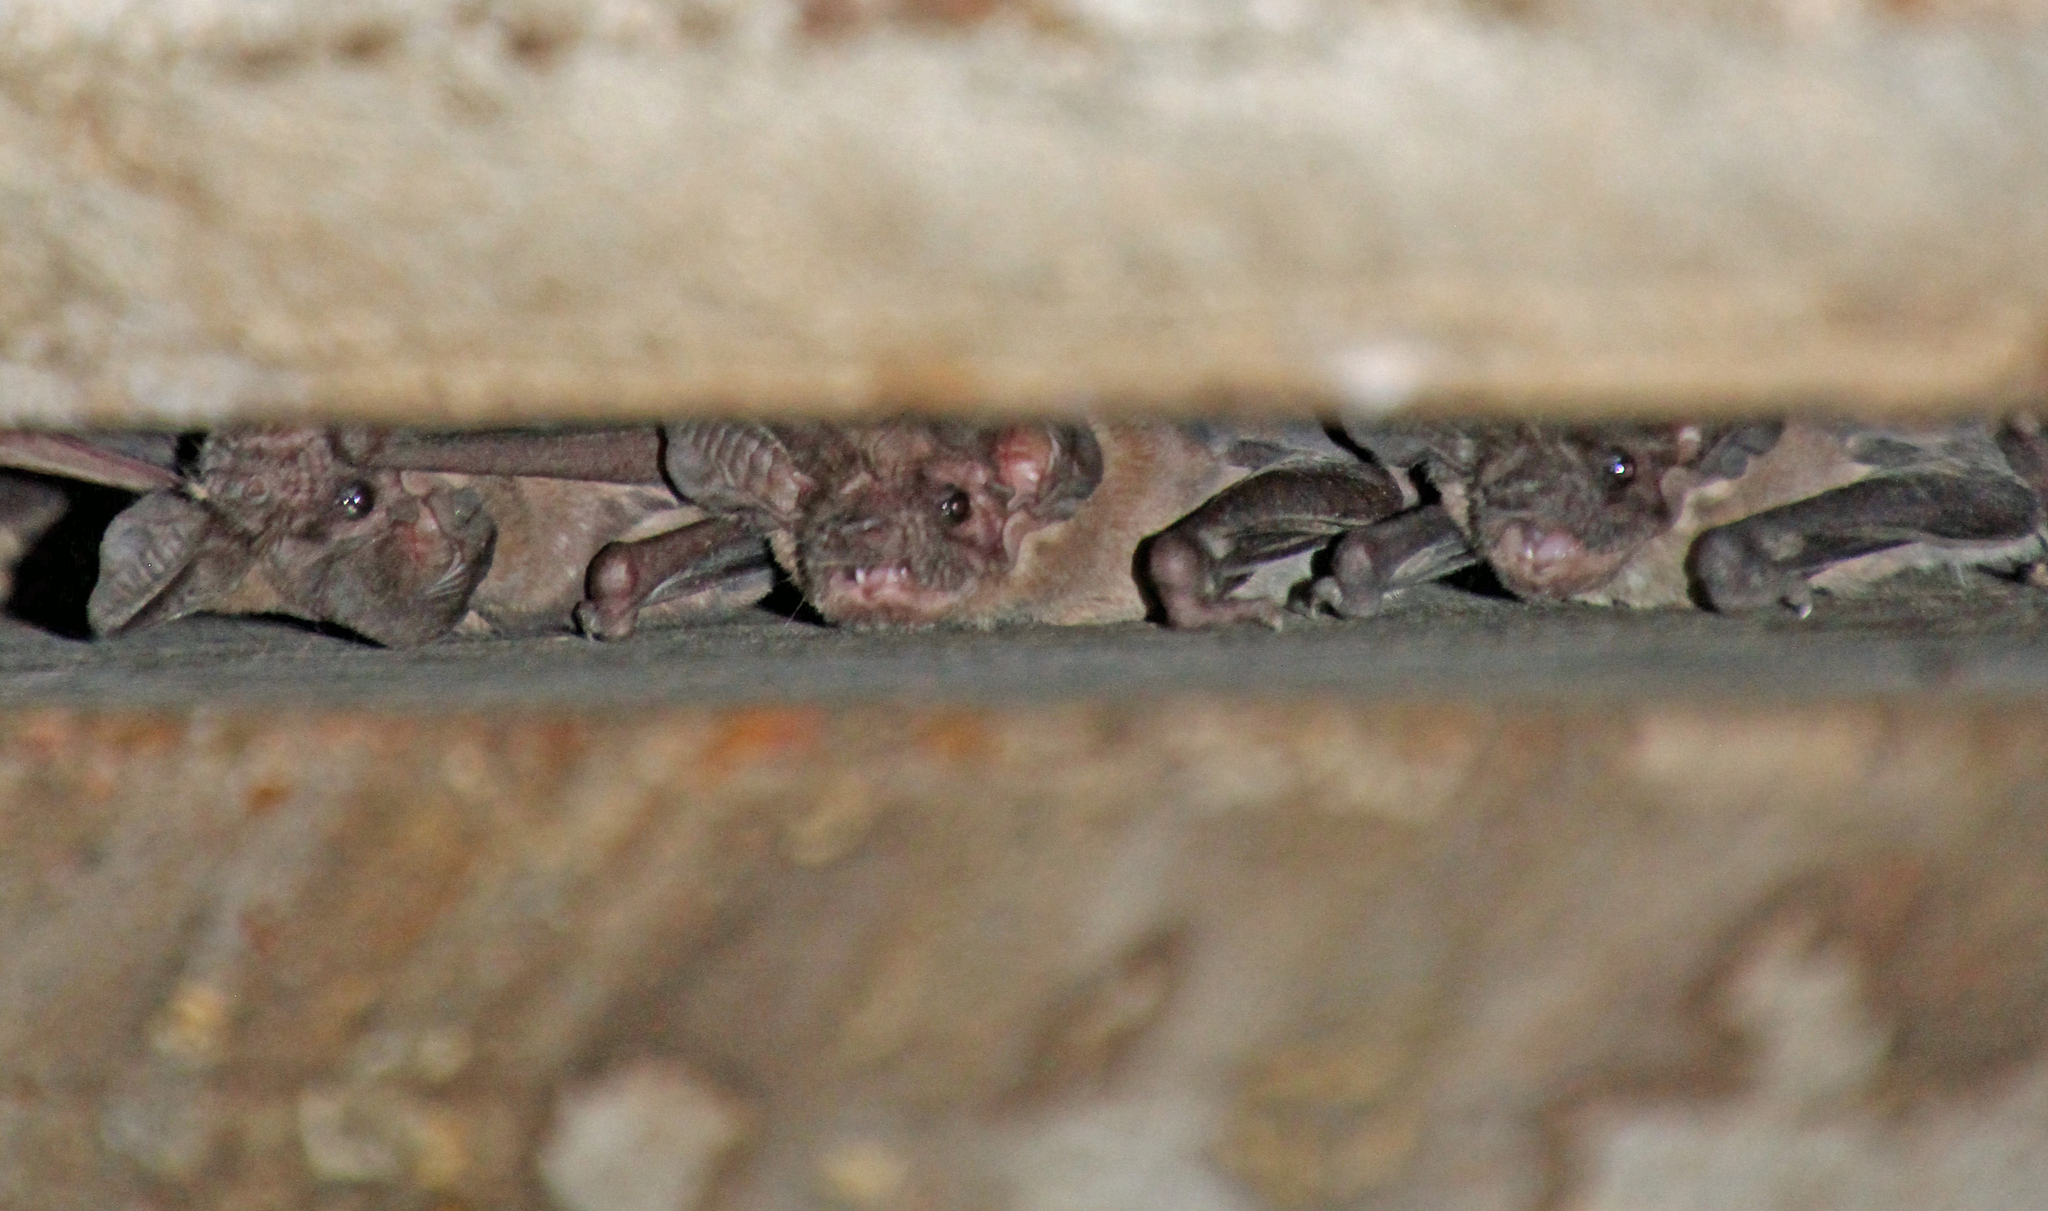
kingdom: Animalia
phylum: Chordata
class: Mammalia
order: Chiroptera
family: Molossidae
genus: Tadarida
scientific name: Tadarida brasiliensis
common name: Mexican free-tailed bat
